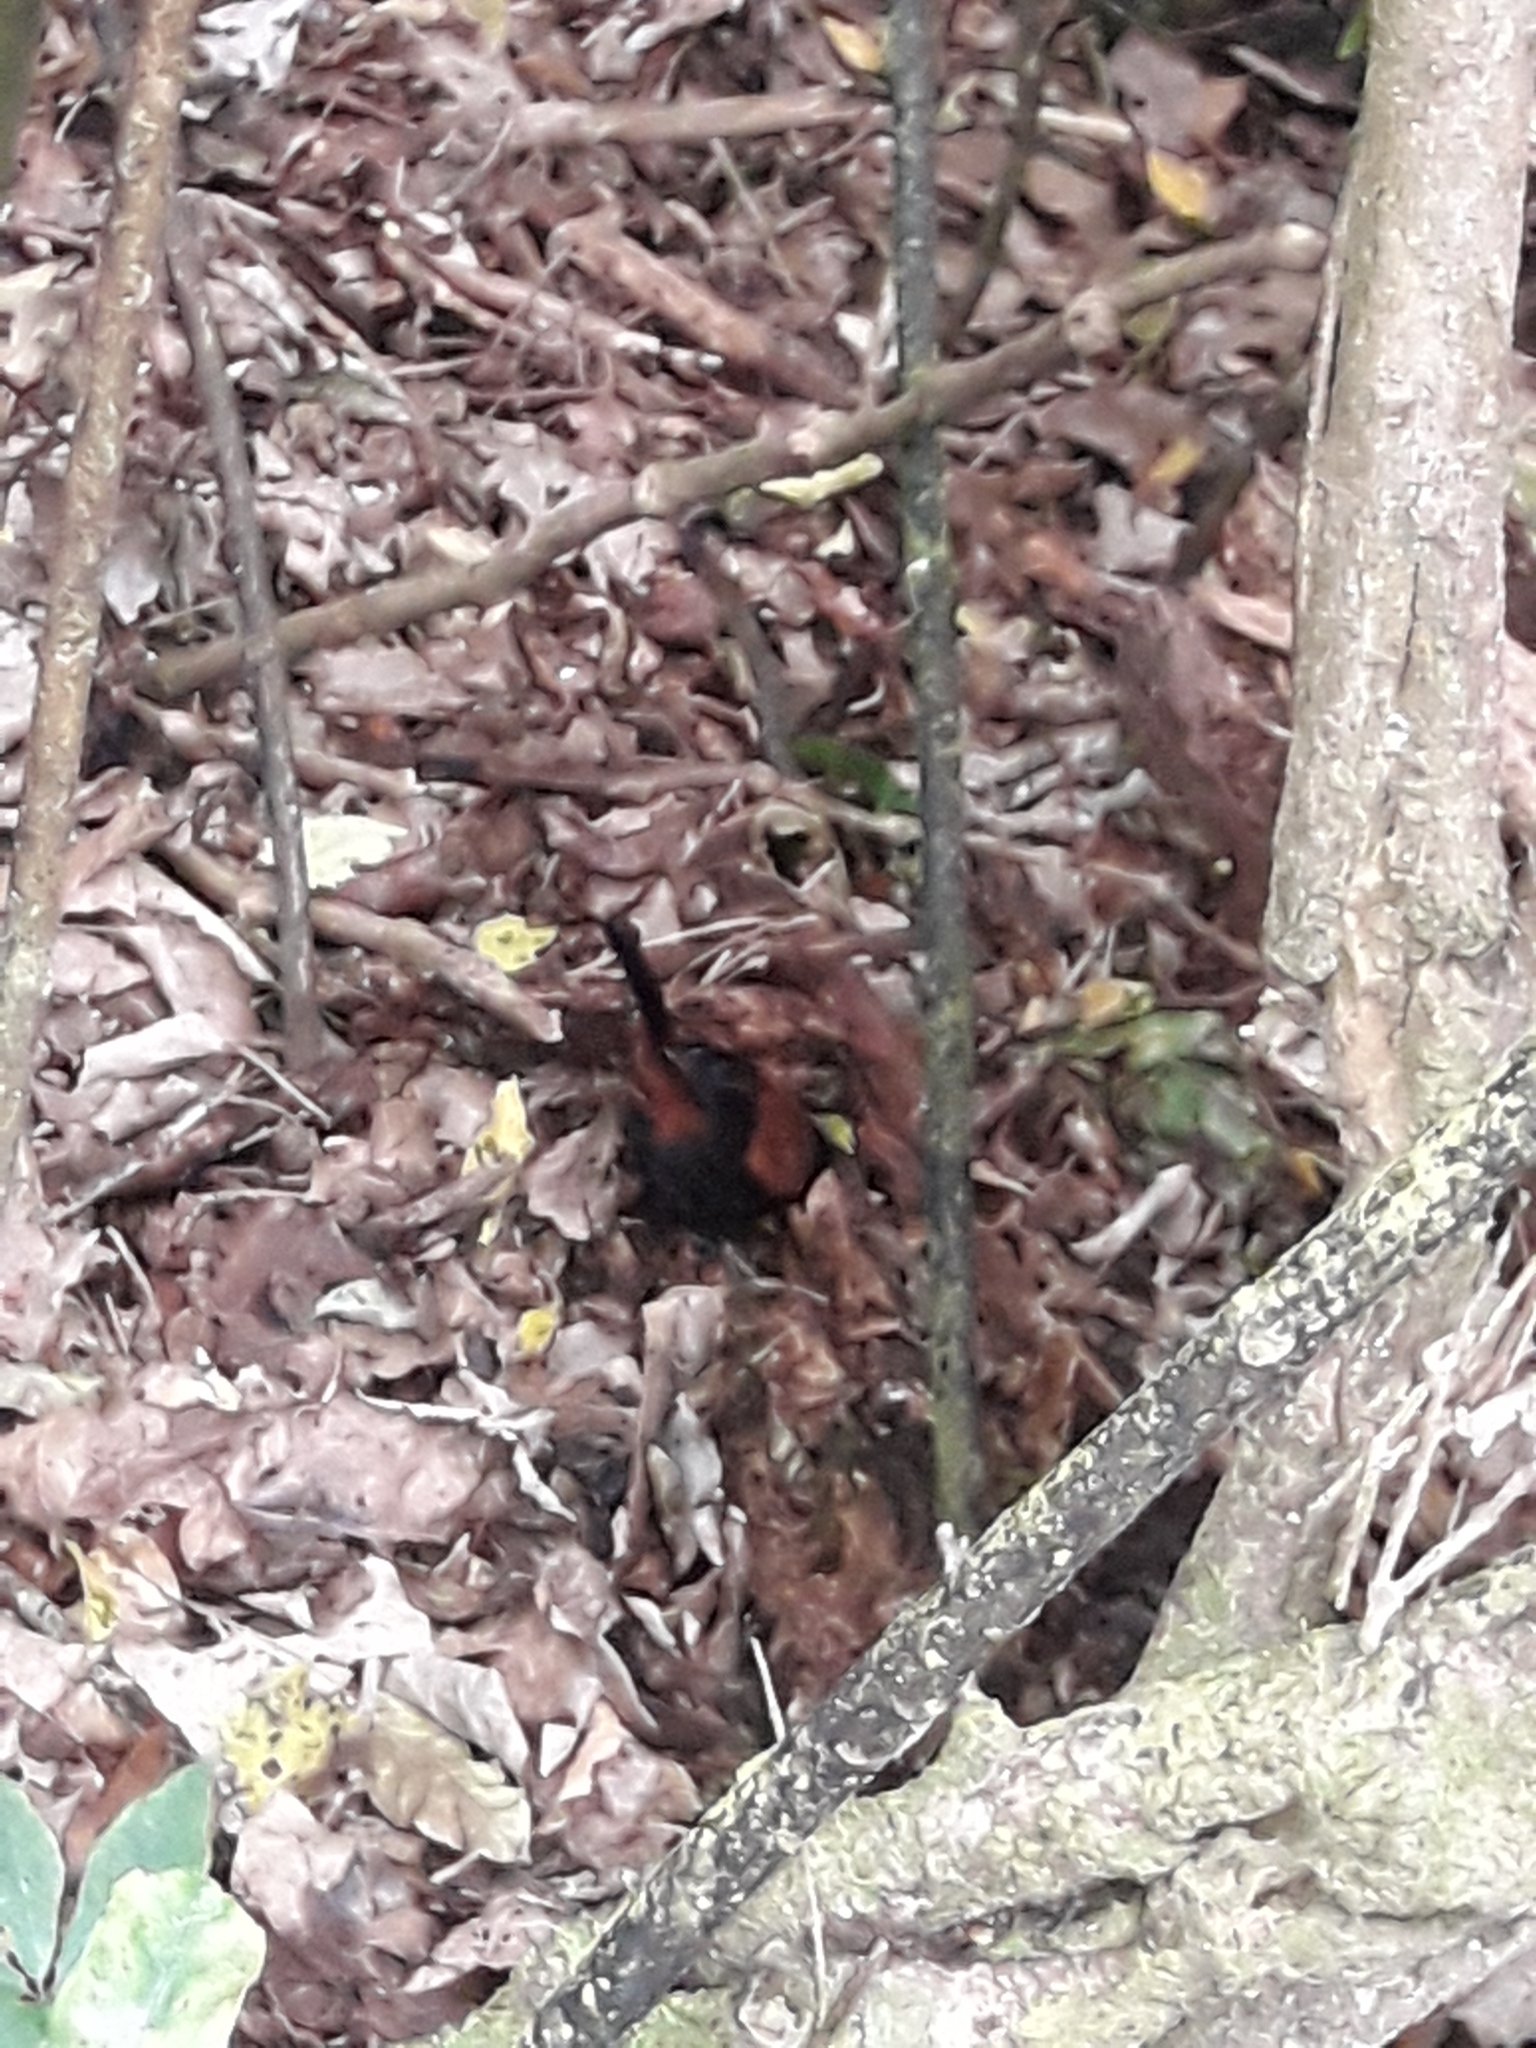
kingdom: Animalia
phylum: Chordata
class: Aves
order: Passeriformes
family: Callaeatidae
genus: Philesturnus
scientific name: Philesturnus carunculatus
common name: South island saddleback
